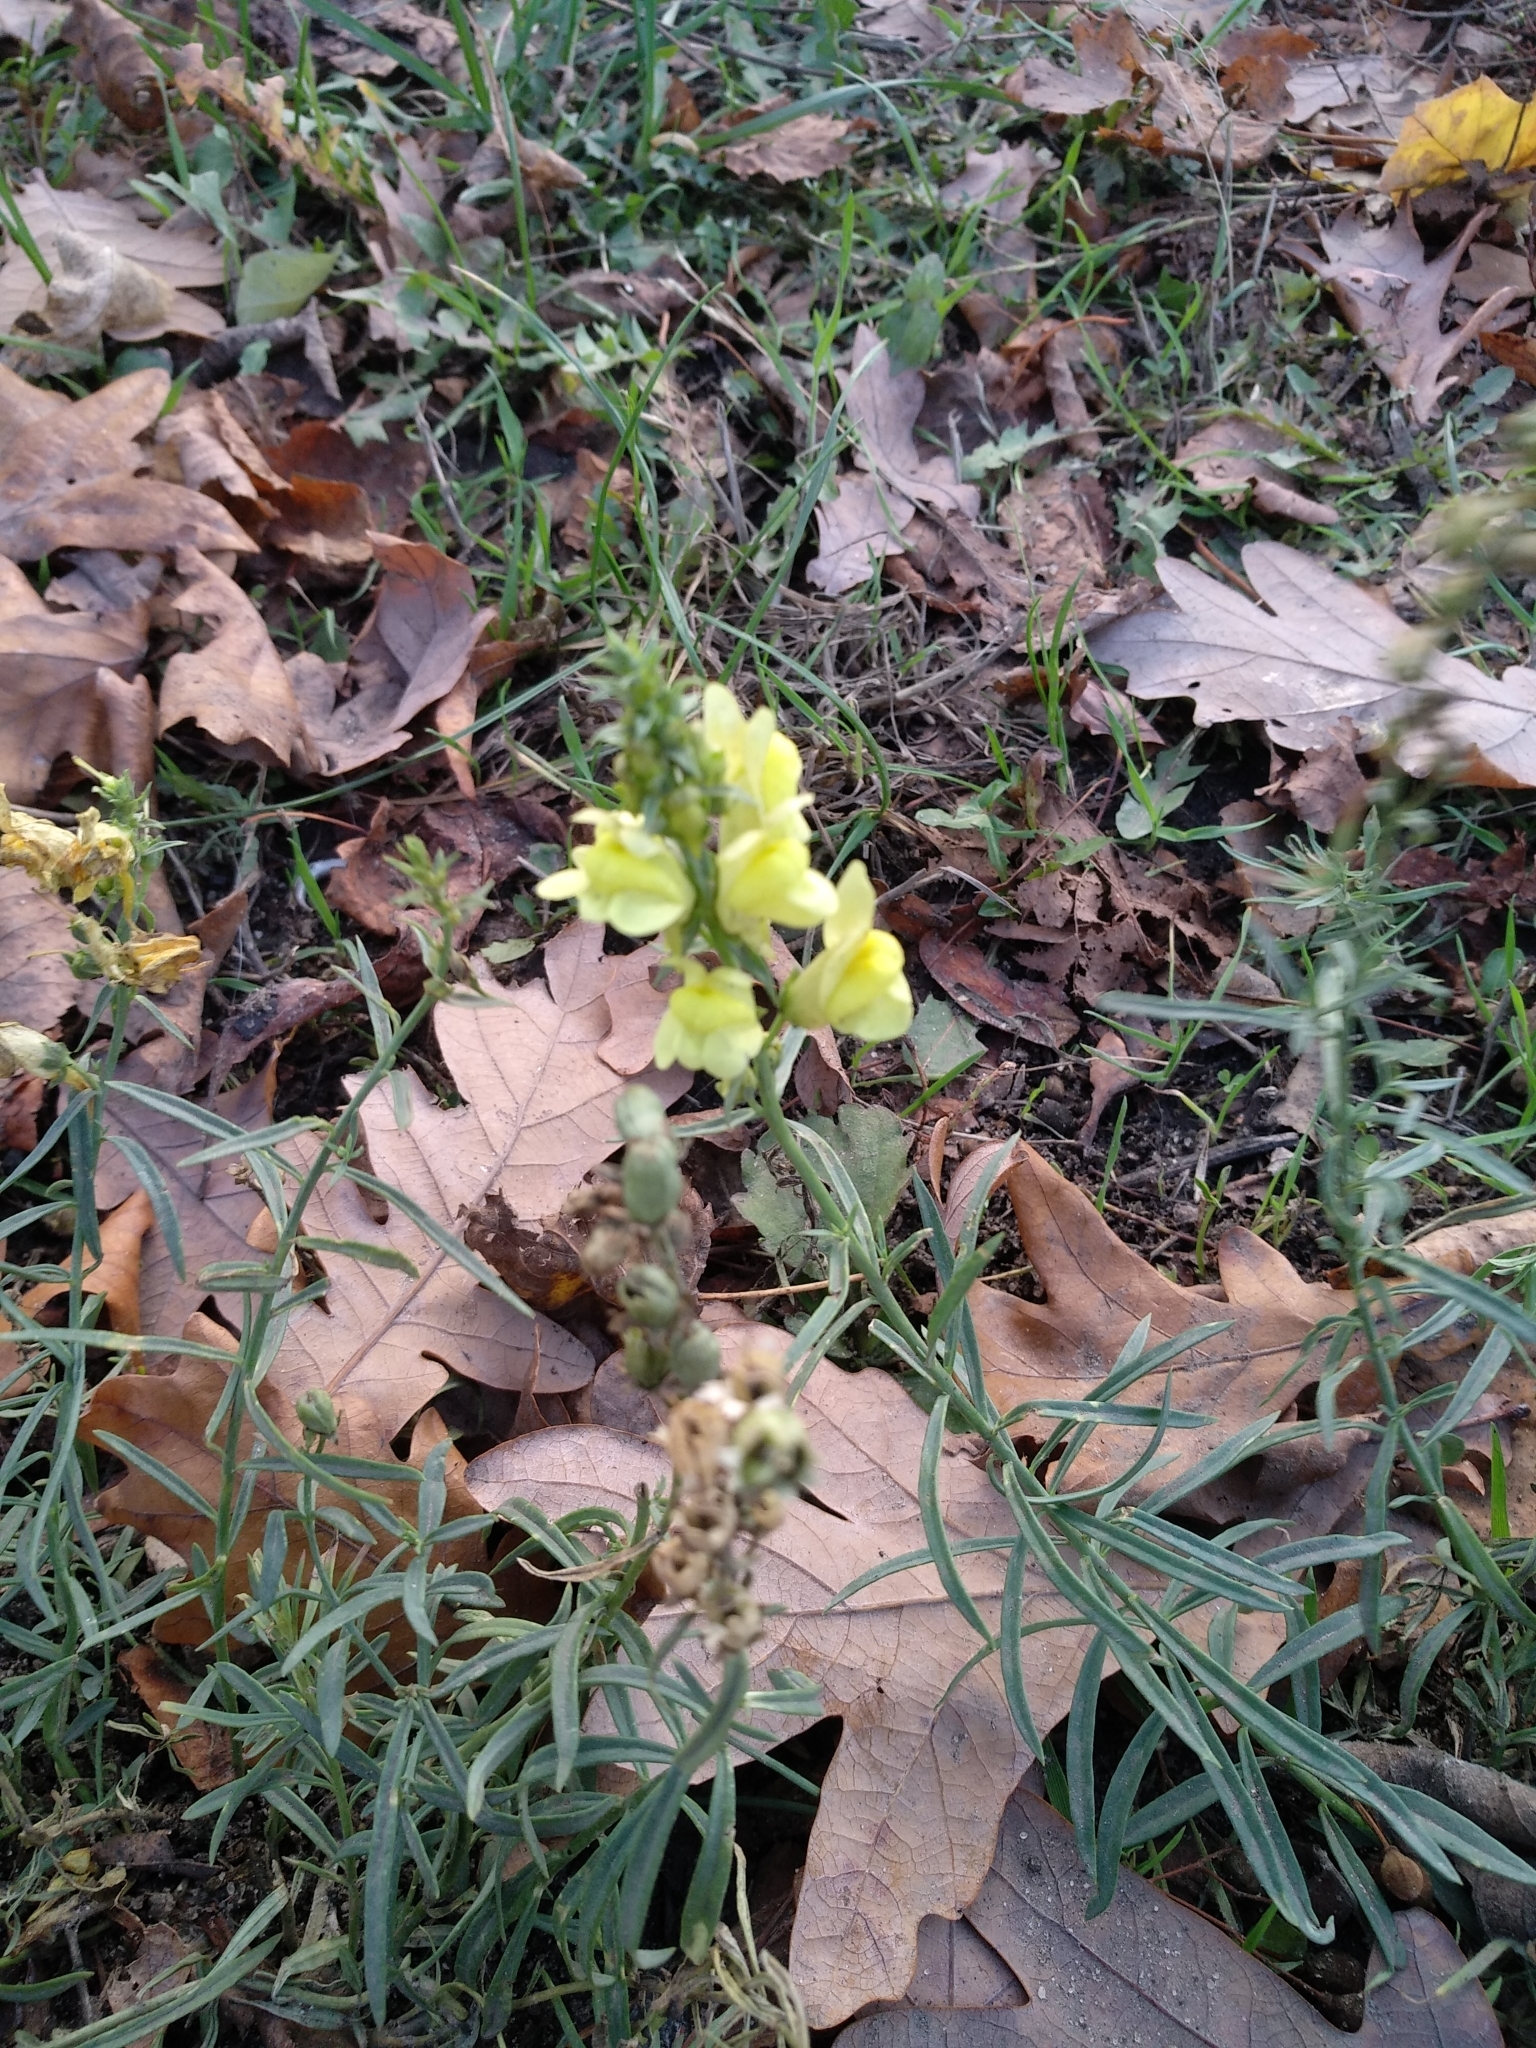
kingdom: Plantae
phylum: Tracheophyta
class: Magnoliopsida
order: Lamiales
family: Plantaginaceae
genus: Linaria
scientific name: Linaria vulgaris
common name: Butter and eggs
